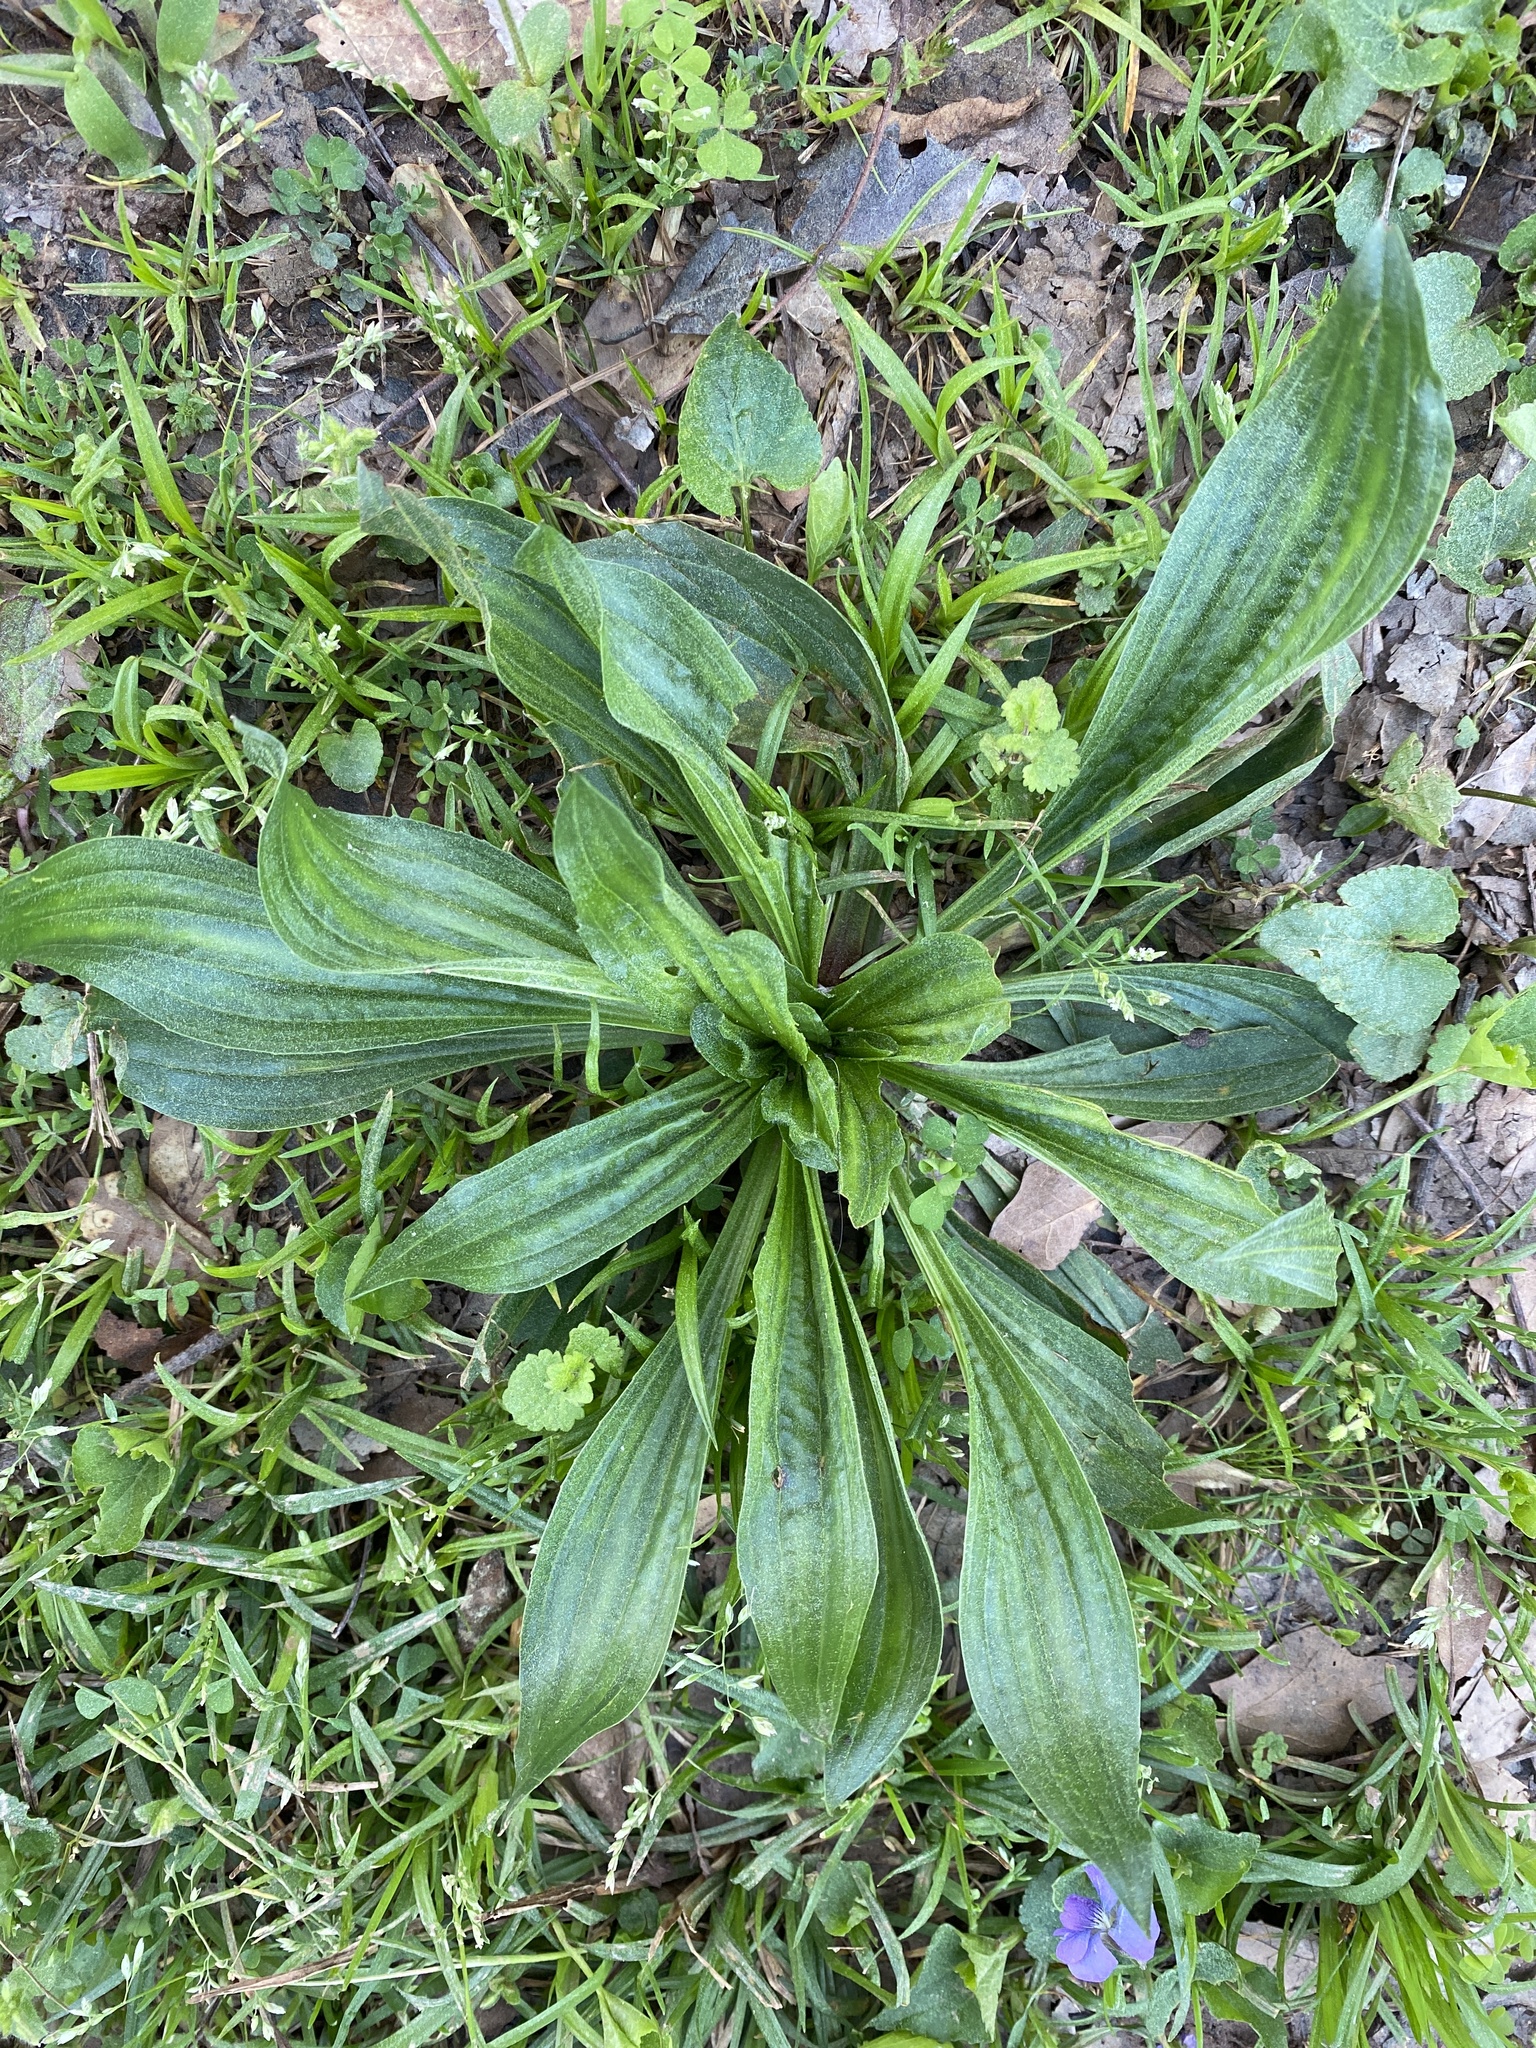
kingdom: Plantae
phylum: Tracheophyta
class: Magnoliopsida
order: Lamiales
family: Plantaginaceae
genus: Plantago
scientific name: Plantago lanceolata
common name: Ribwort plantain
